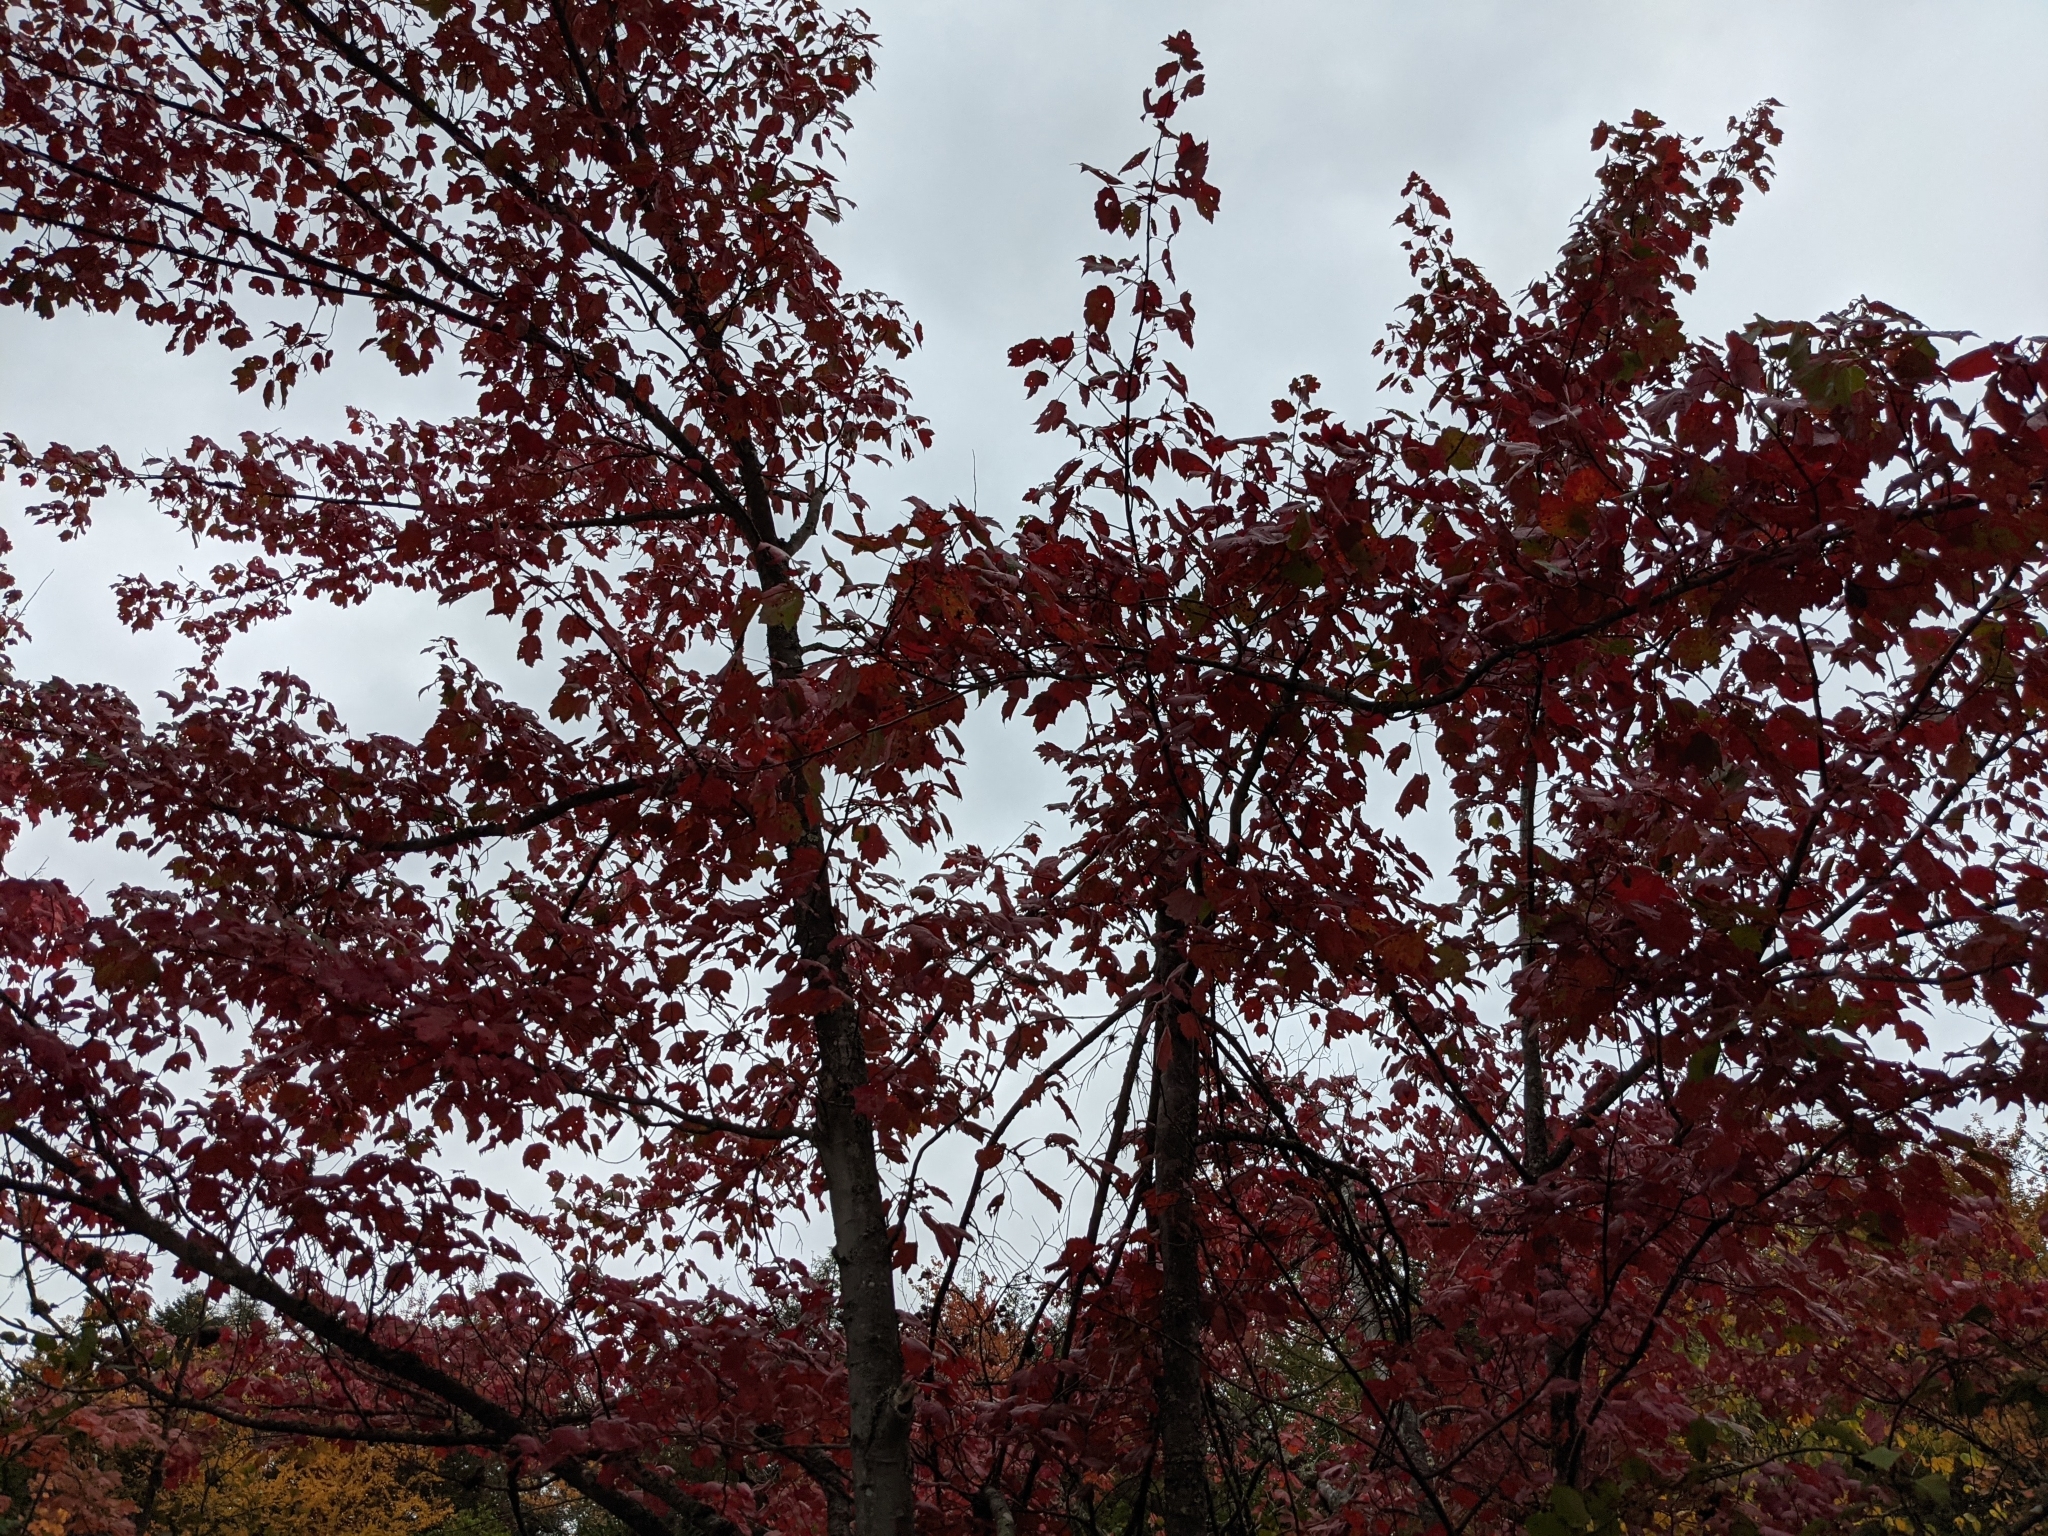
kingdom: Plantae
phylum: Tracheophyta
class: Magnoliopsida
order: Sapindales
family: Sapindaceae
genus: Acer
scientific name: Acer rubrum
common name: Red maple
